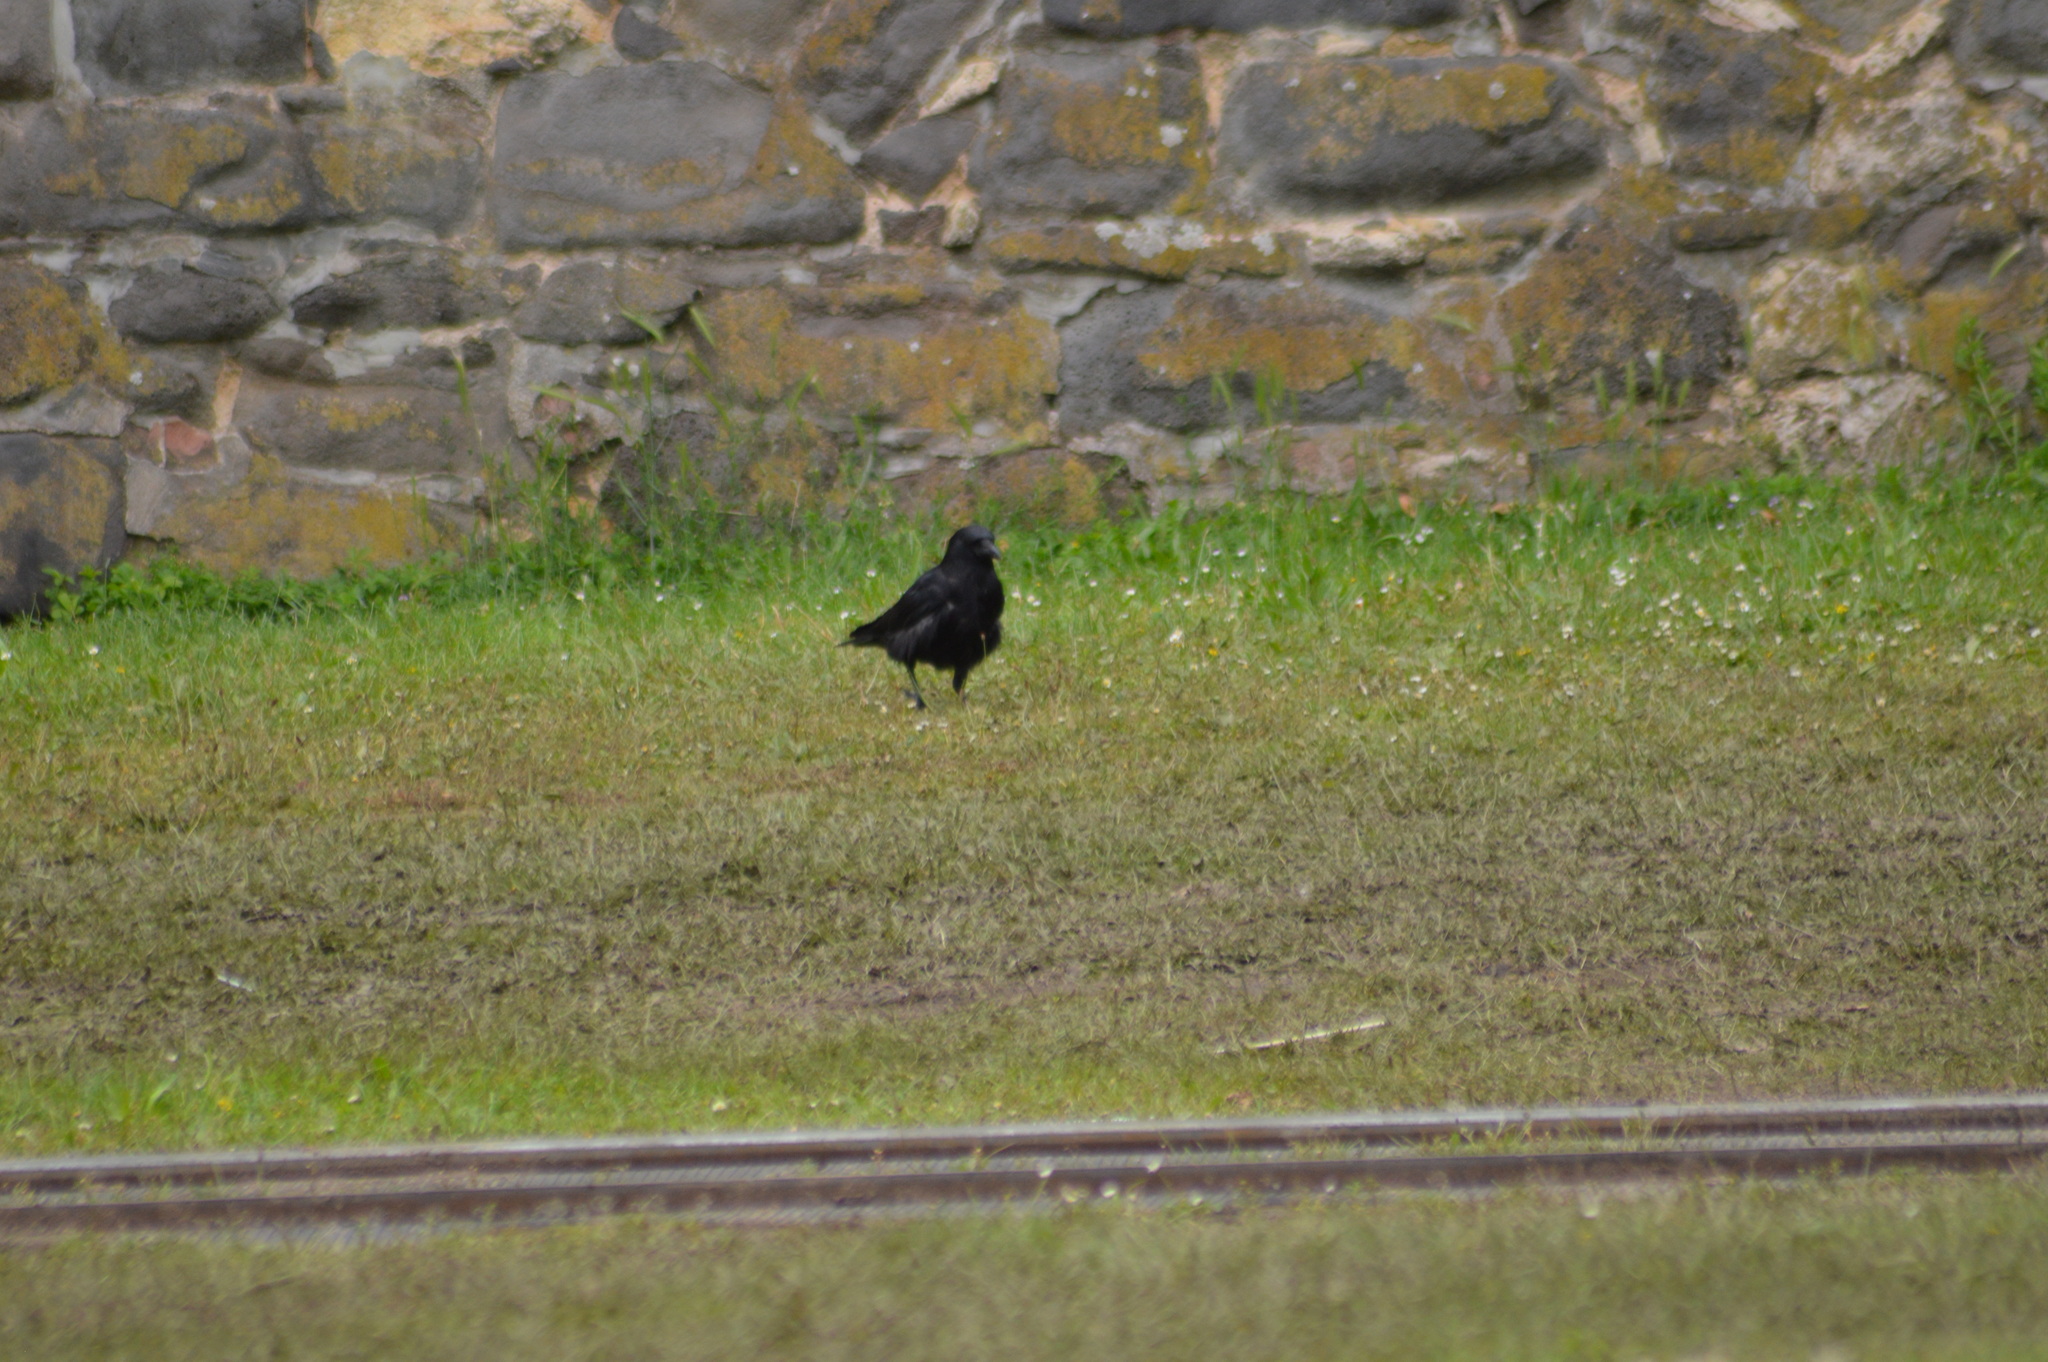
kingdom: Animalia
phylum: Chordata
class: Aves
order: Passeriformes
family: Corvidae
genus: Corvus
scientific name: Corvus corone
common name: Carrion crow
